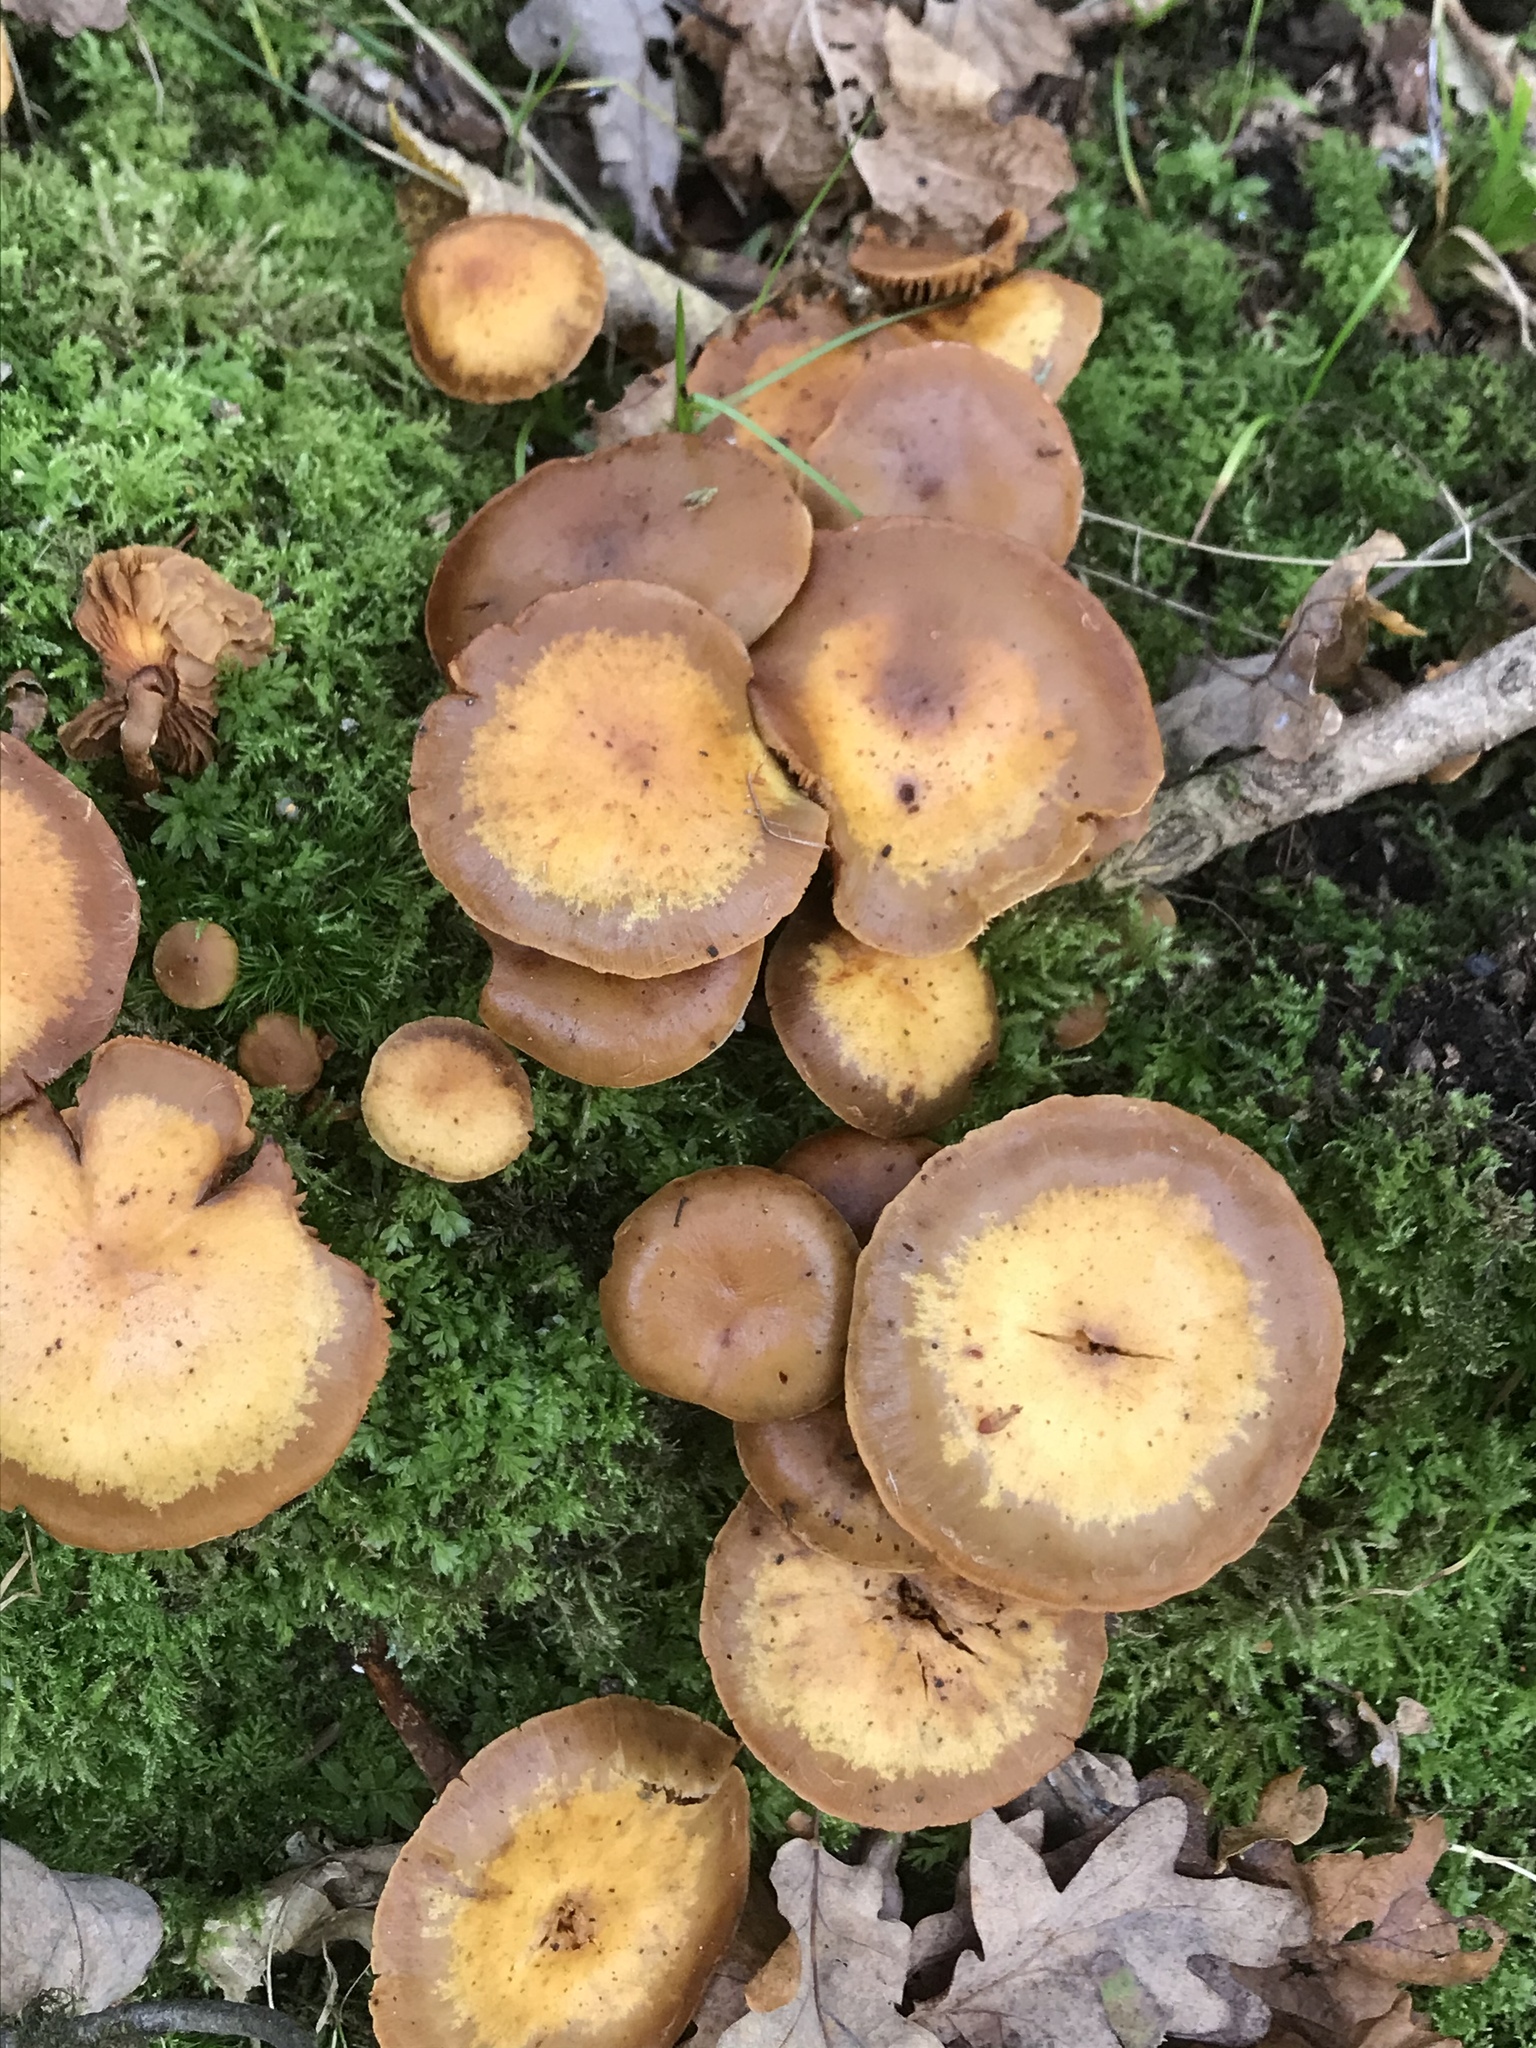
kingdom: Fungi
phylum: Basidiomycota
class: Agaricomycetes
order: Agaricales
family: Strophariaceae
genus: Kuehneromyces
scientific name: Kuehneromyces mutabilis
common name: Sheathed woodtuft
